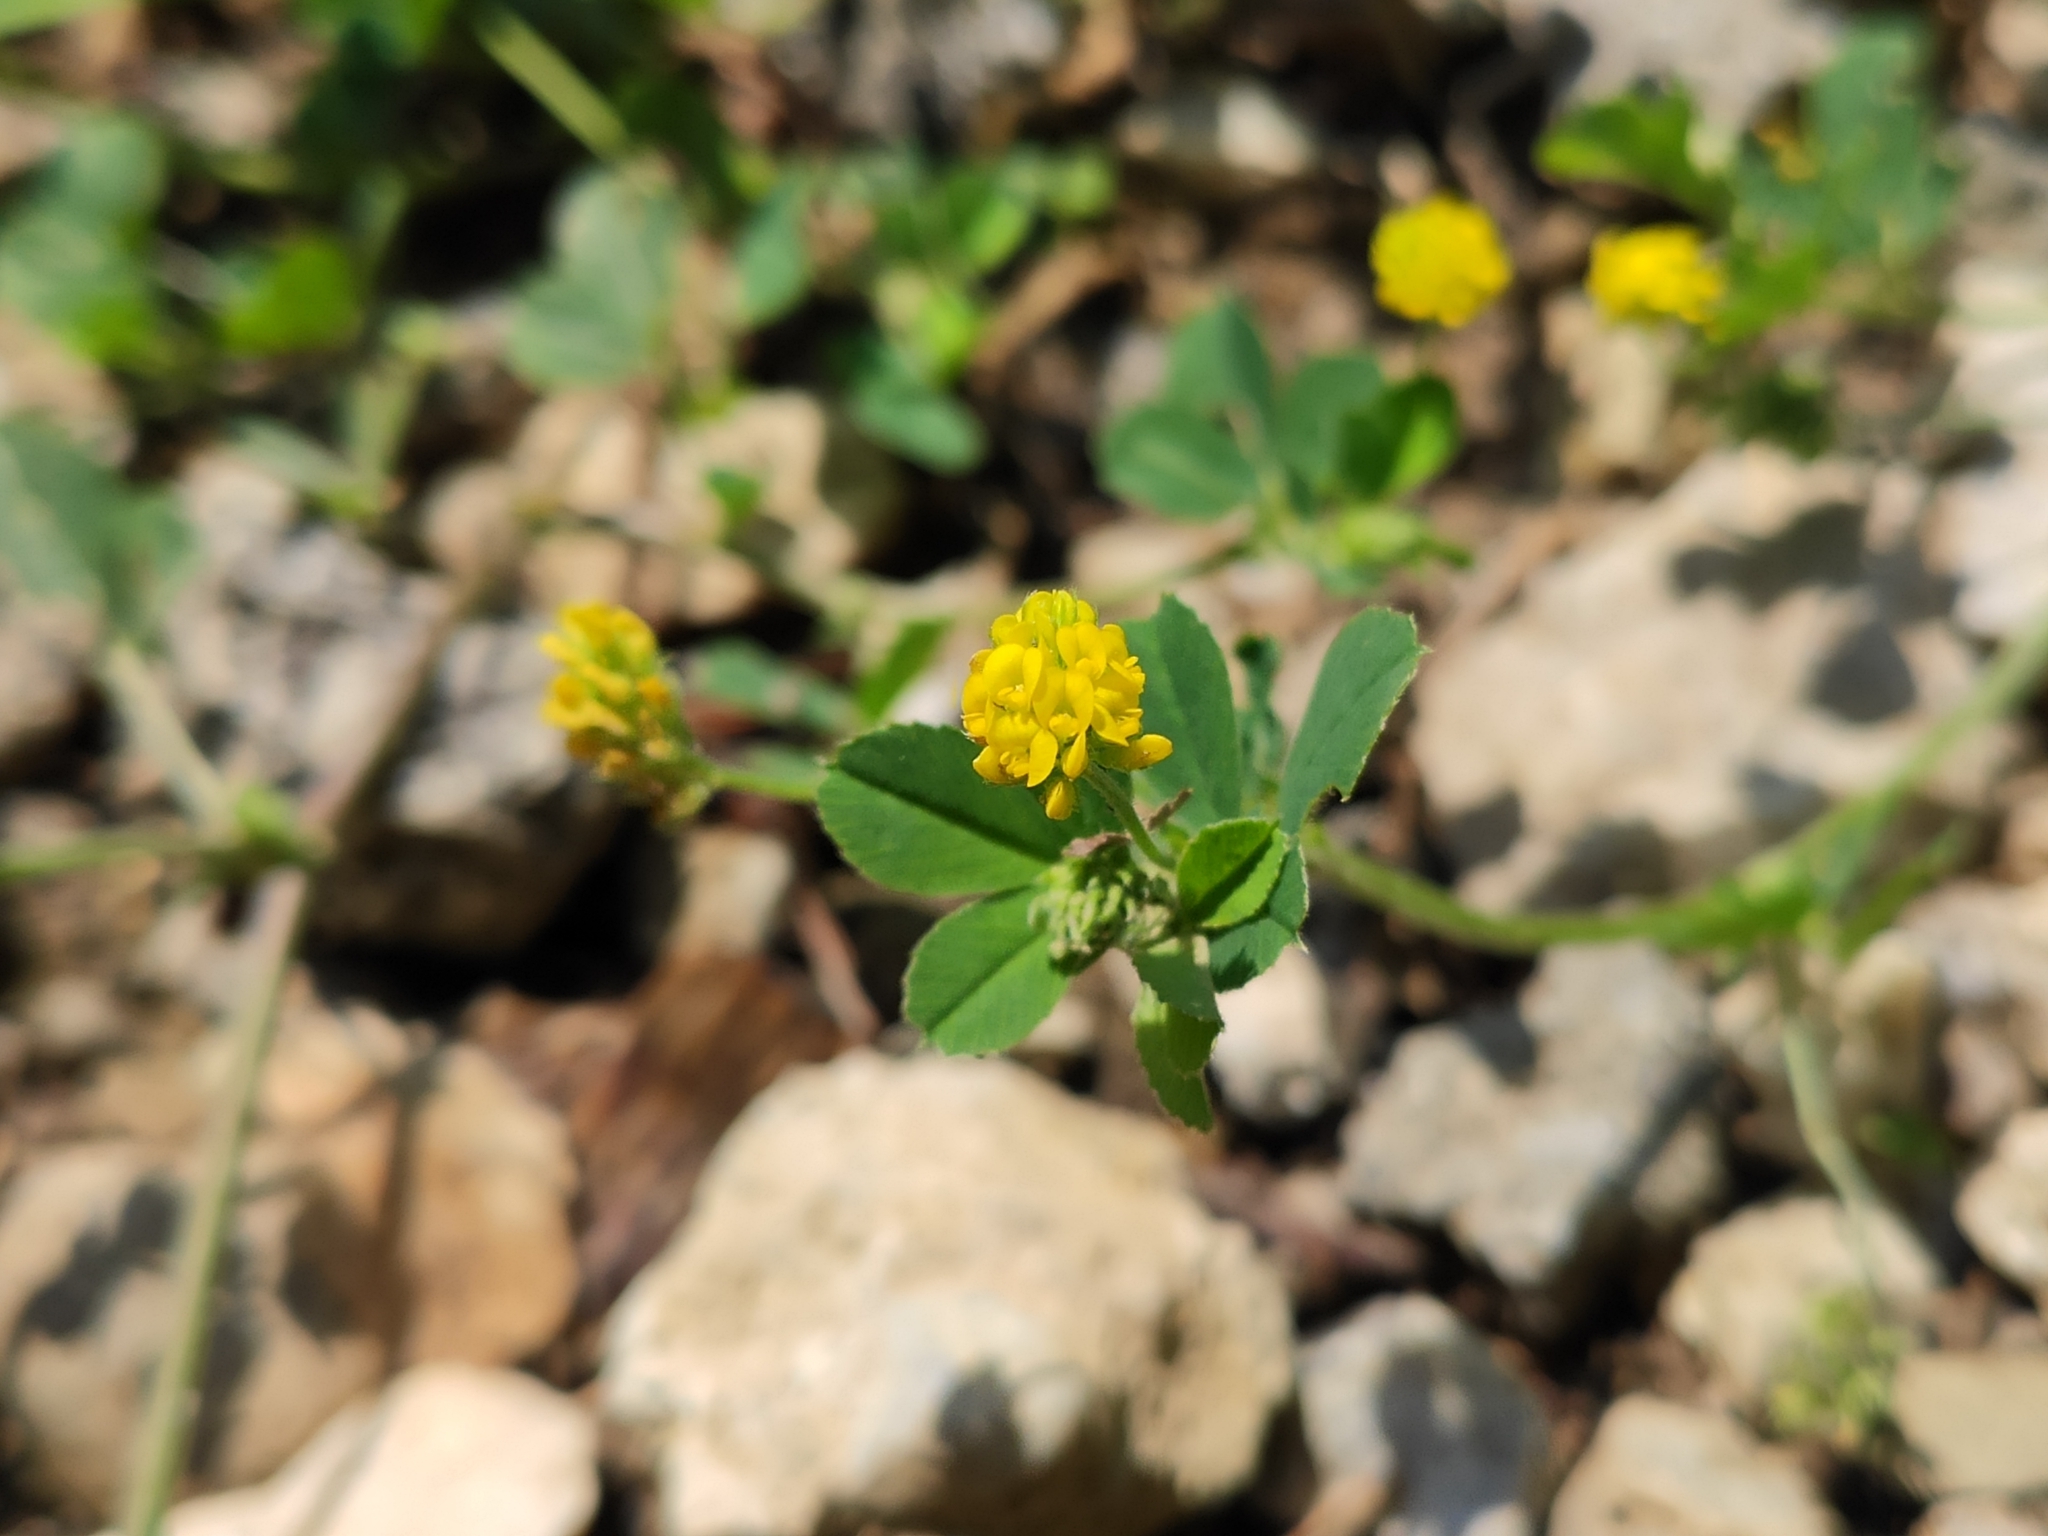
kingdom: Plantae
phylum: Tracheophyta
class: Magnoliopsida
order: Fabales
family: Fabaceae
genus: Medicago
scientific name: Medicago lupulina
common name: Black medick
